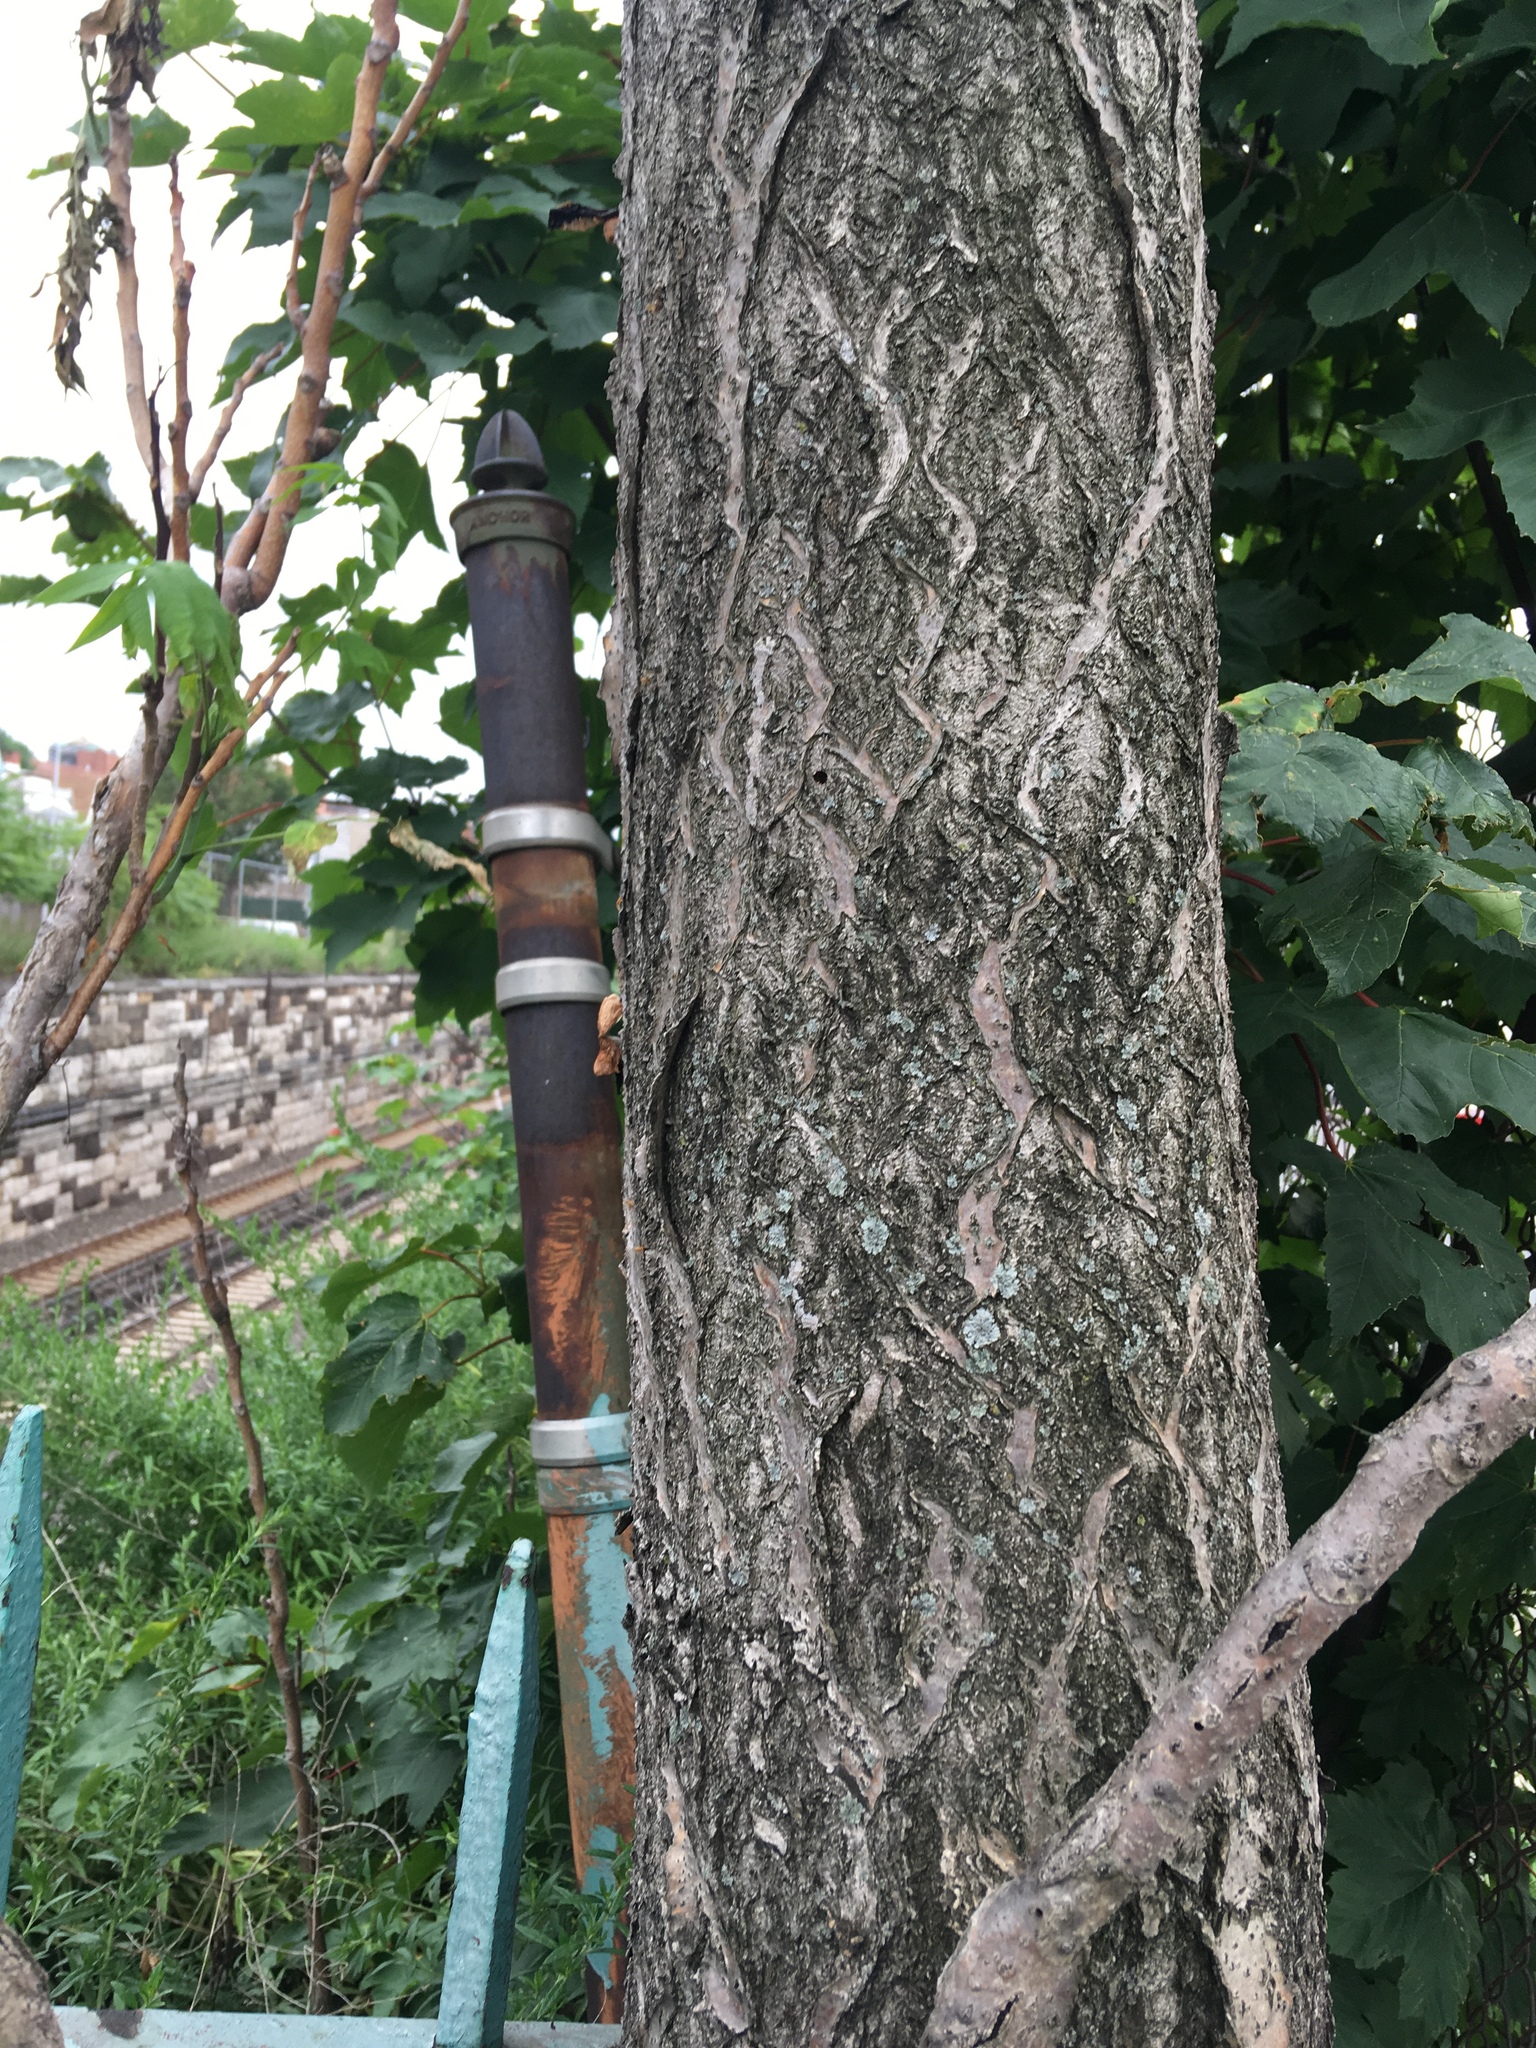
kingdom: Plantae
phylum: Tracheophyta
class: Magnoliopsida
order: Sapindales
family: Simaroubaceae
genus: Ailanthus
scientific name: Ailanthus altissima
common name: Tree-of-heaven
